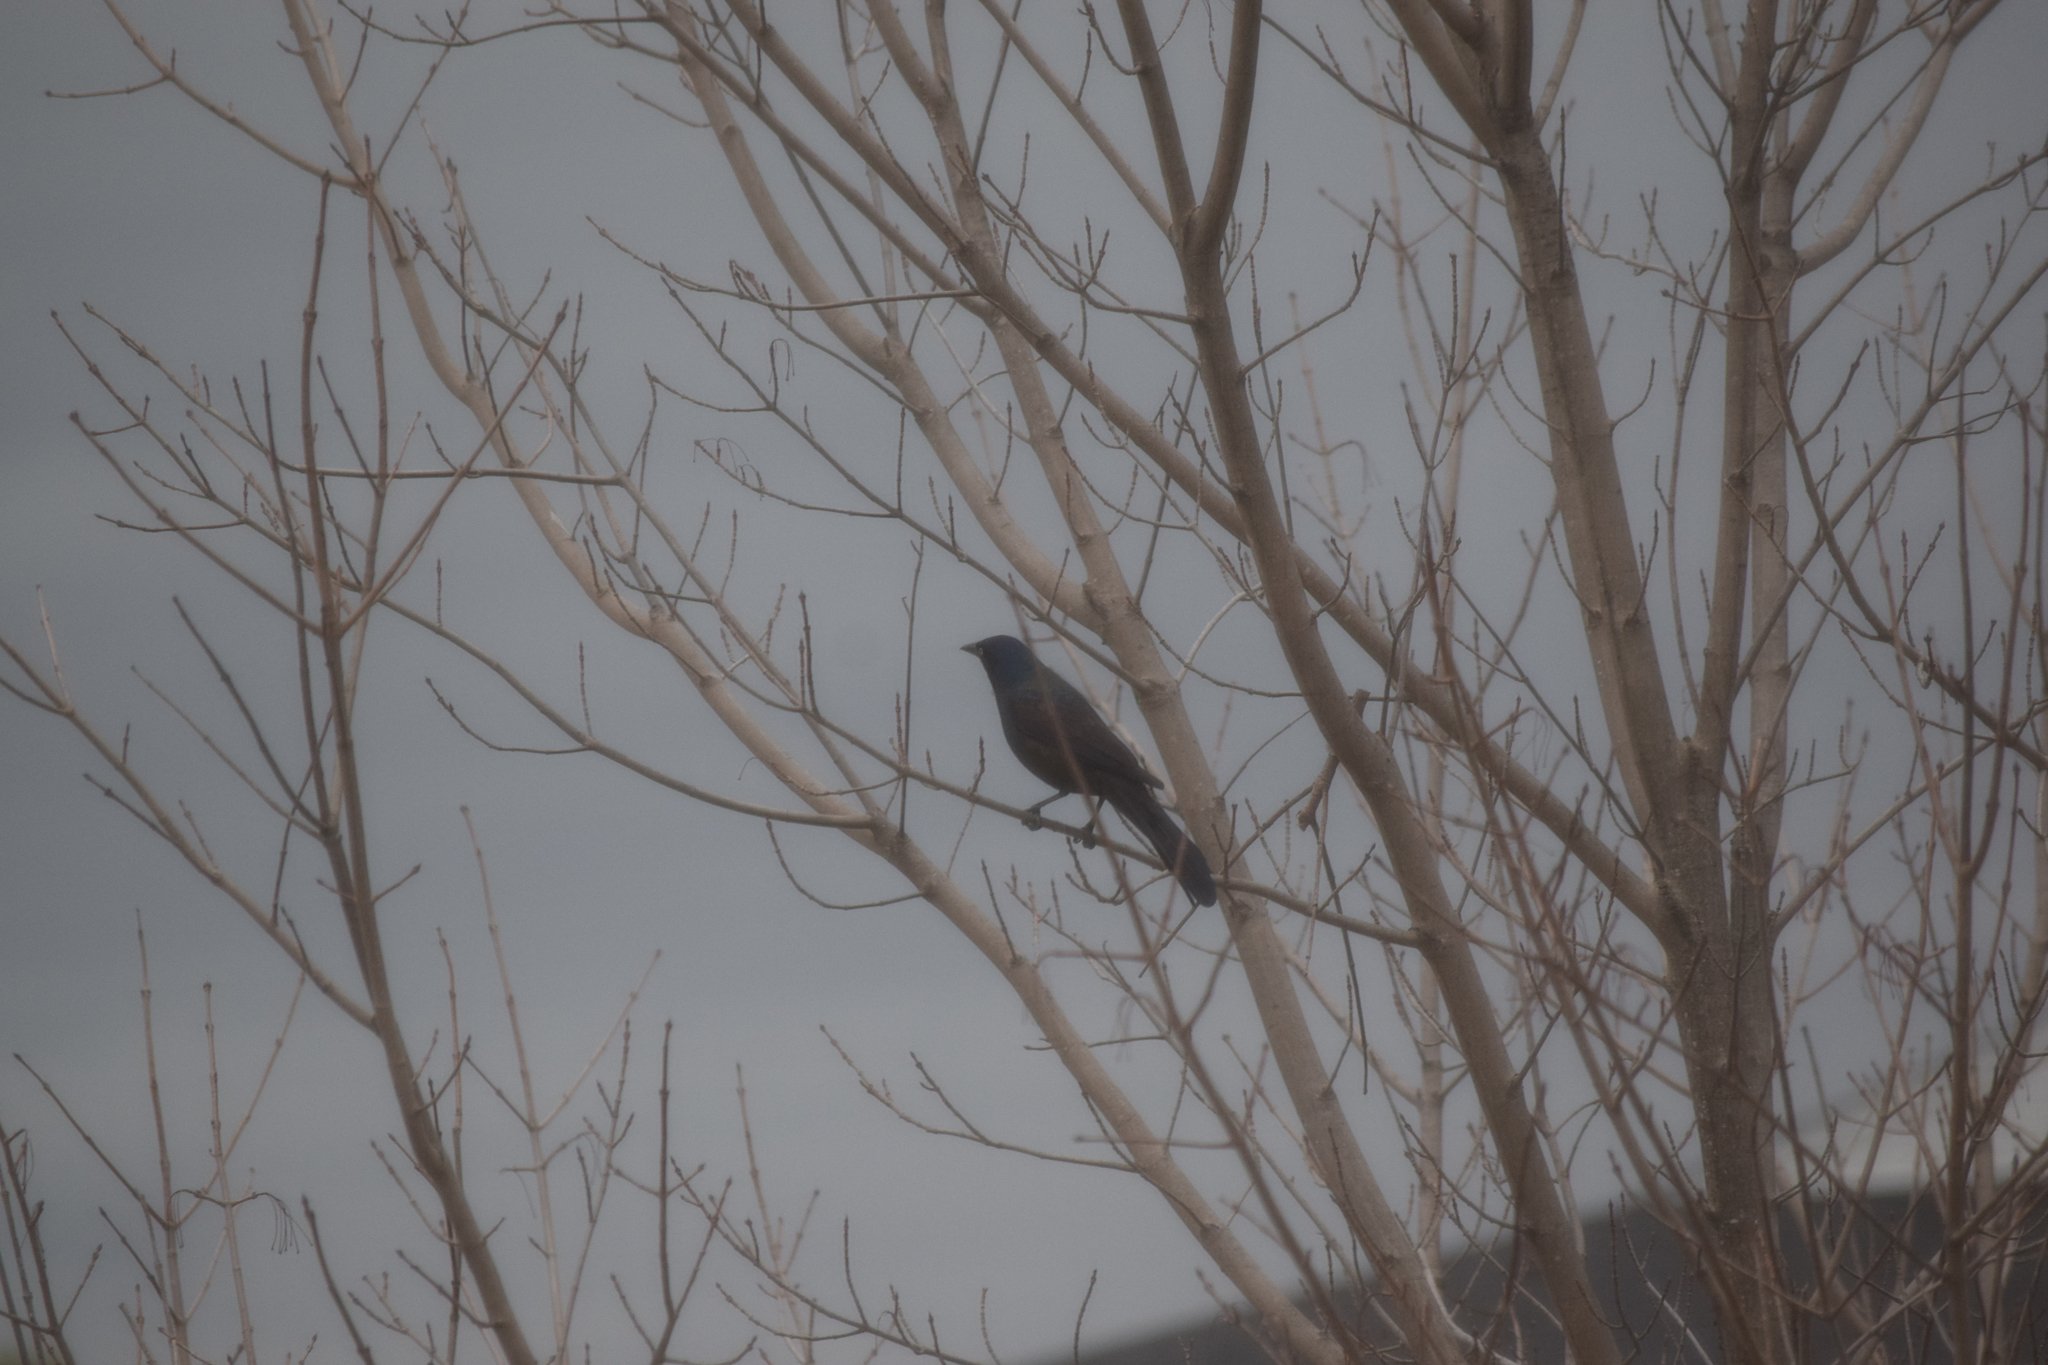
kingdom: Animalia
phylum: Chordata
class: Aves
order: Passeriformes
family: Icteridae
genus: Quiscalus
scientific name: Quiscalus quiscula
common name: Common grackle
